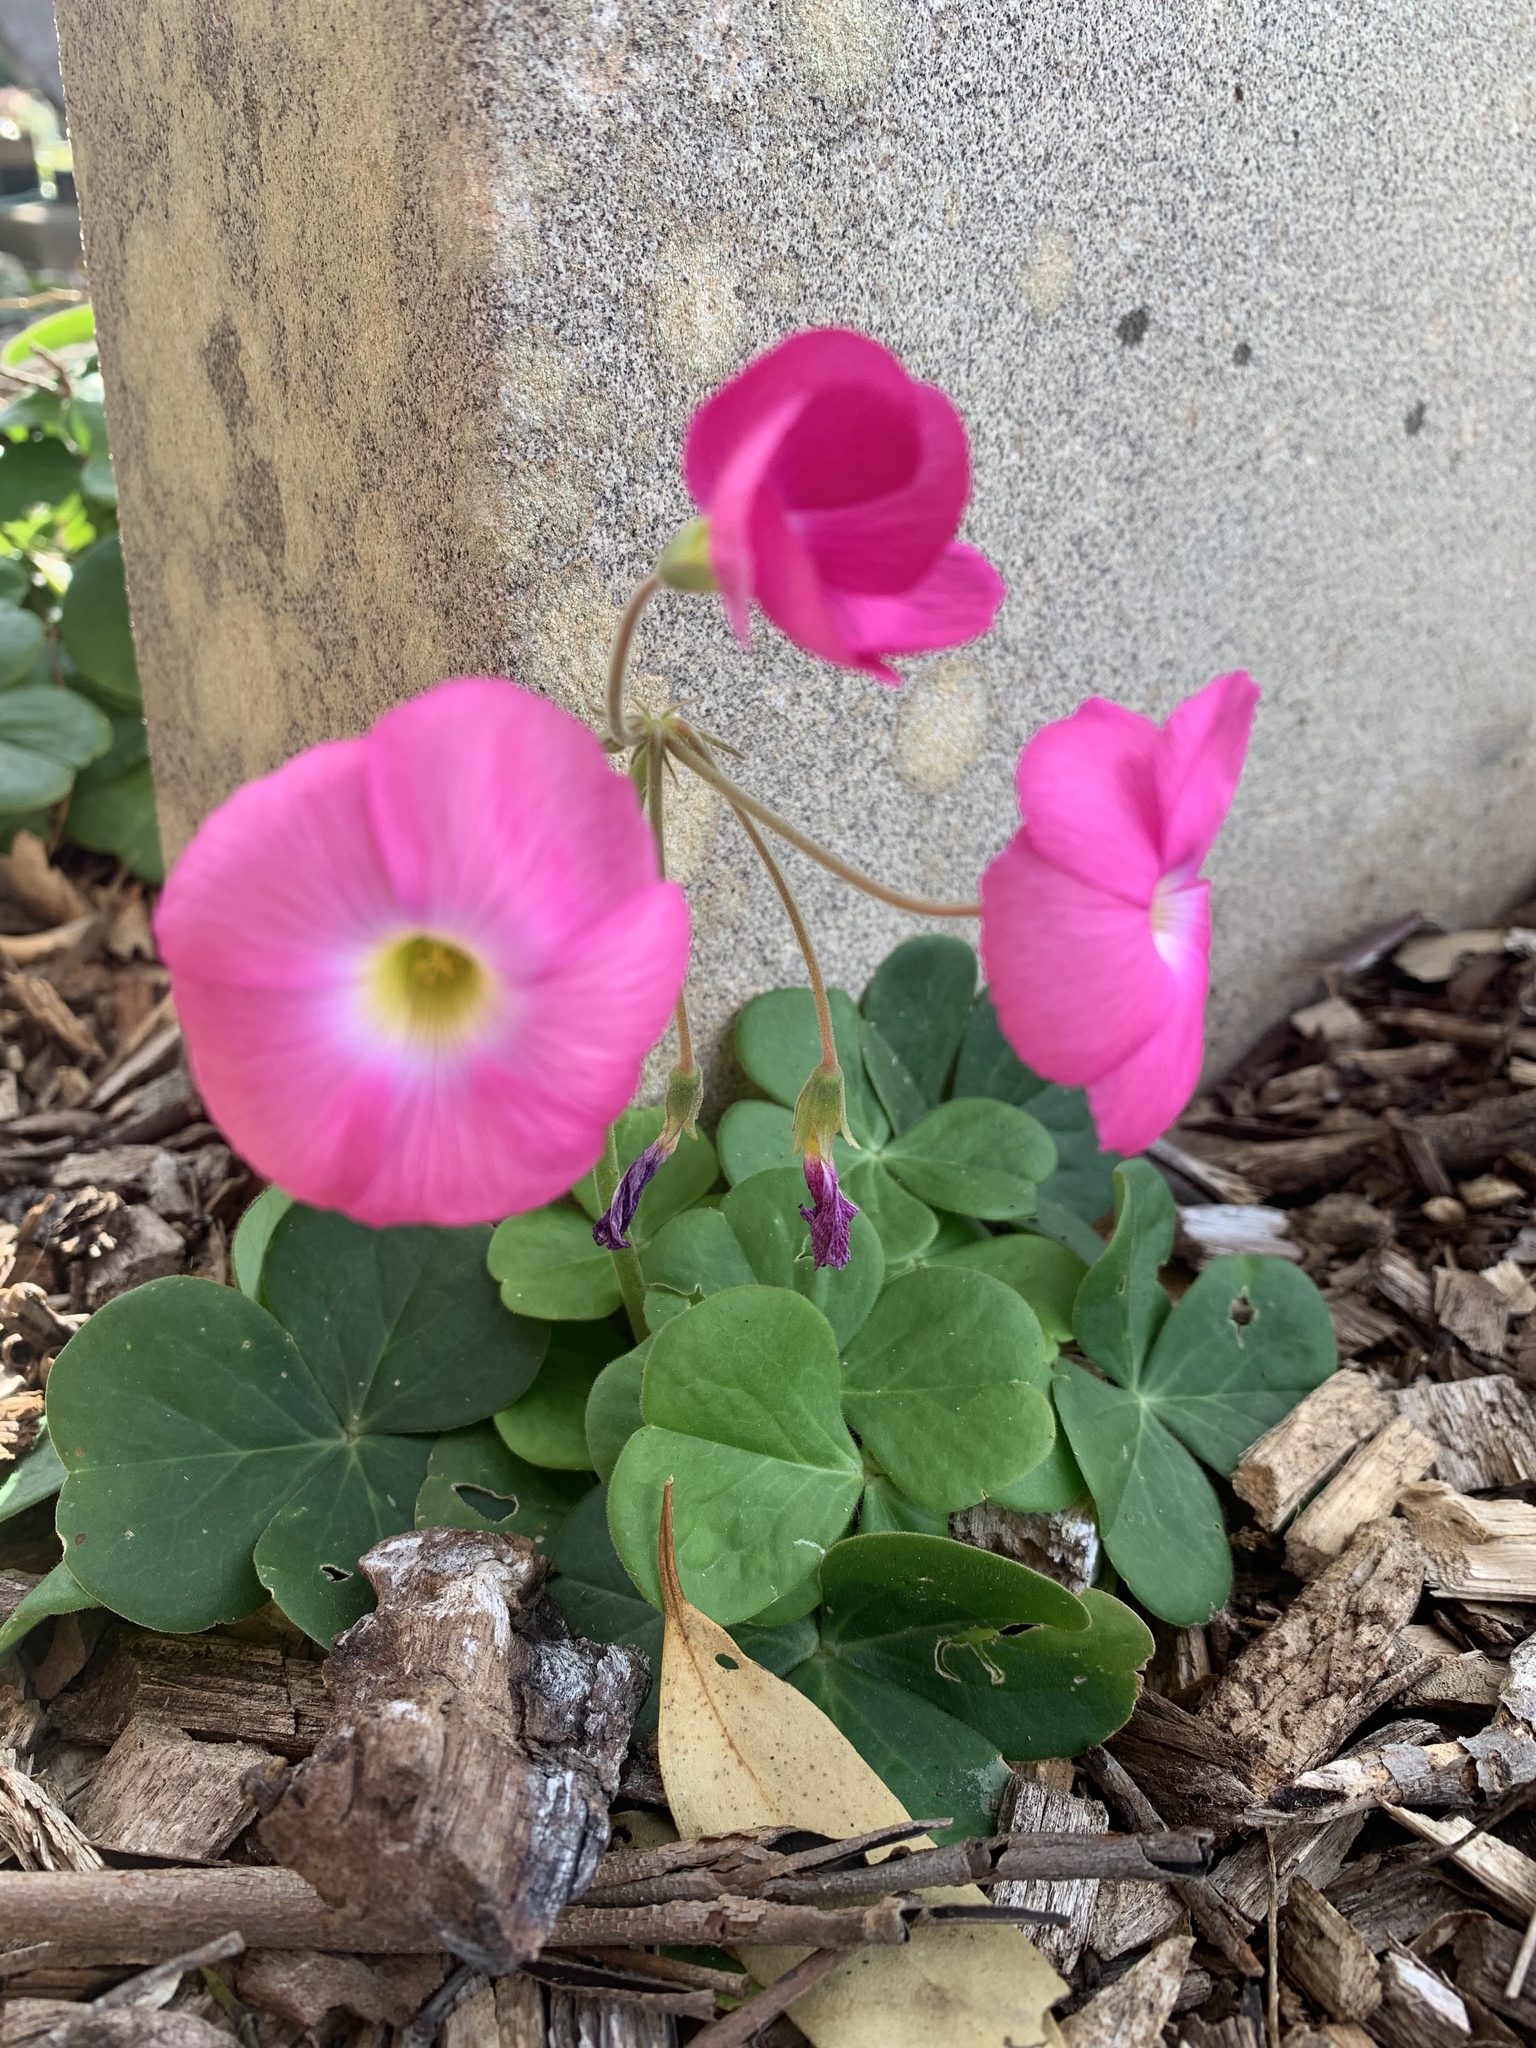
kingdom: Plantae
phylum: Tracheophyta
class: Magnoliopsida
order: Oxalidales
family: Oxalidaceae
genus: Oxalis
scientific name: Oxalis bowiei
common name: Bowie's wood-sorrel
